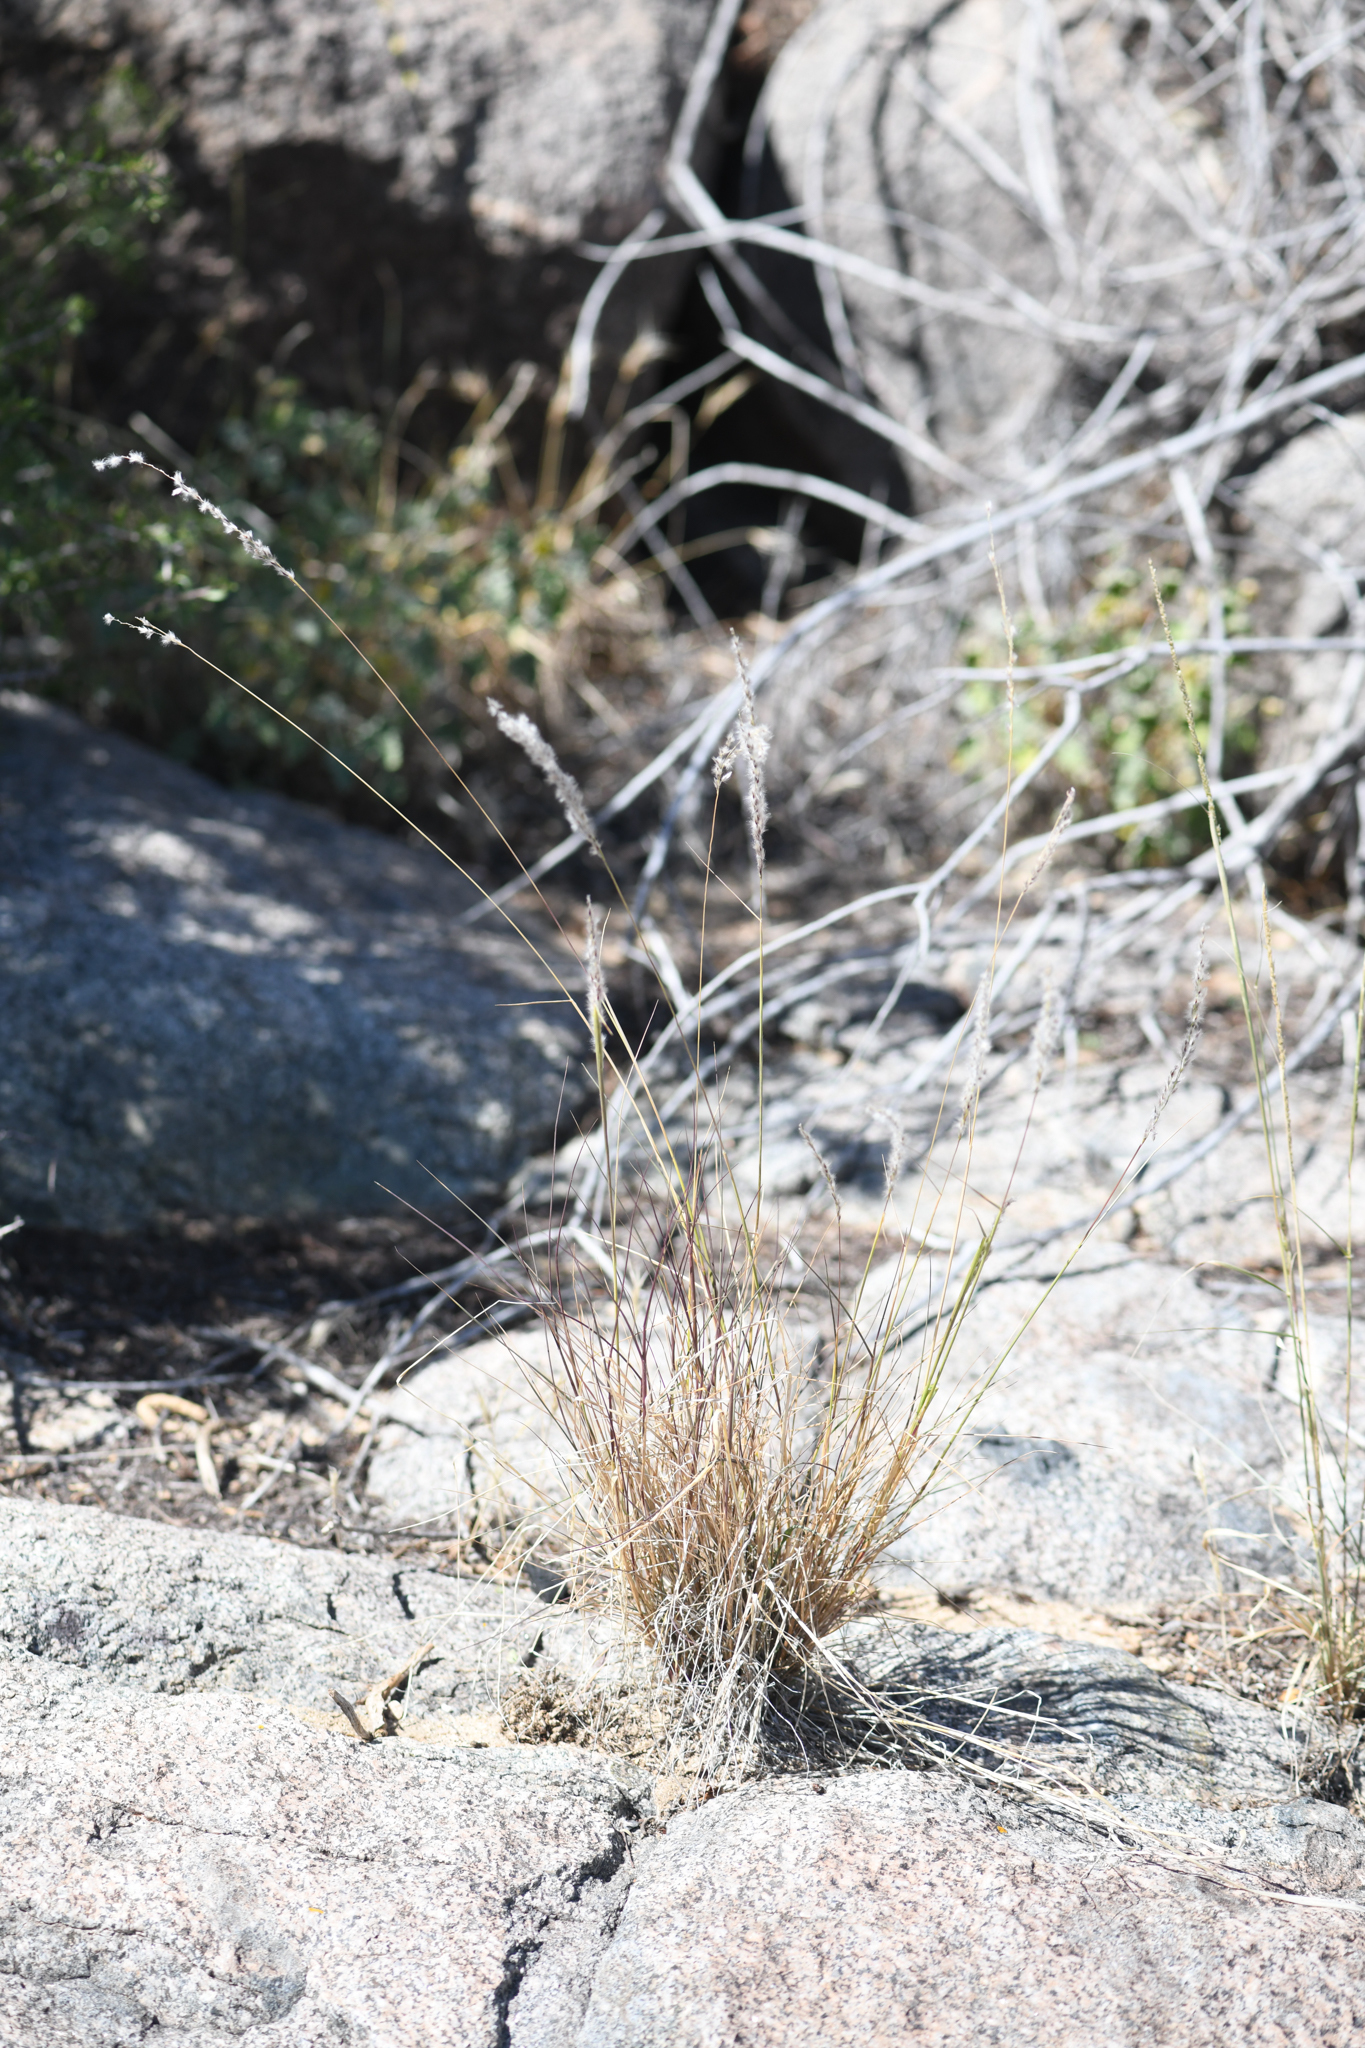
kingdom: Plantae
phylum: Tracheophyta
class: Liliopsida
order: Poales
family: Poaceae
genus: Digitaria
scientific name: Digitaria californica
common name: Arizona cottontop
